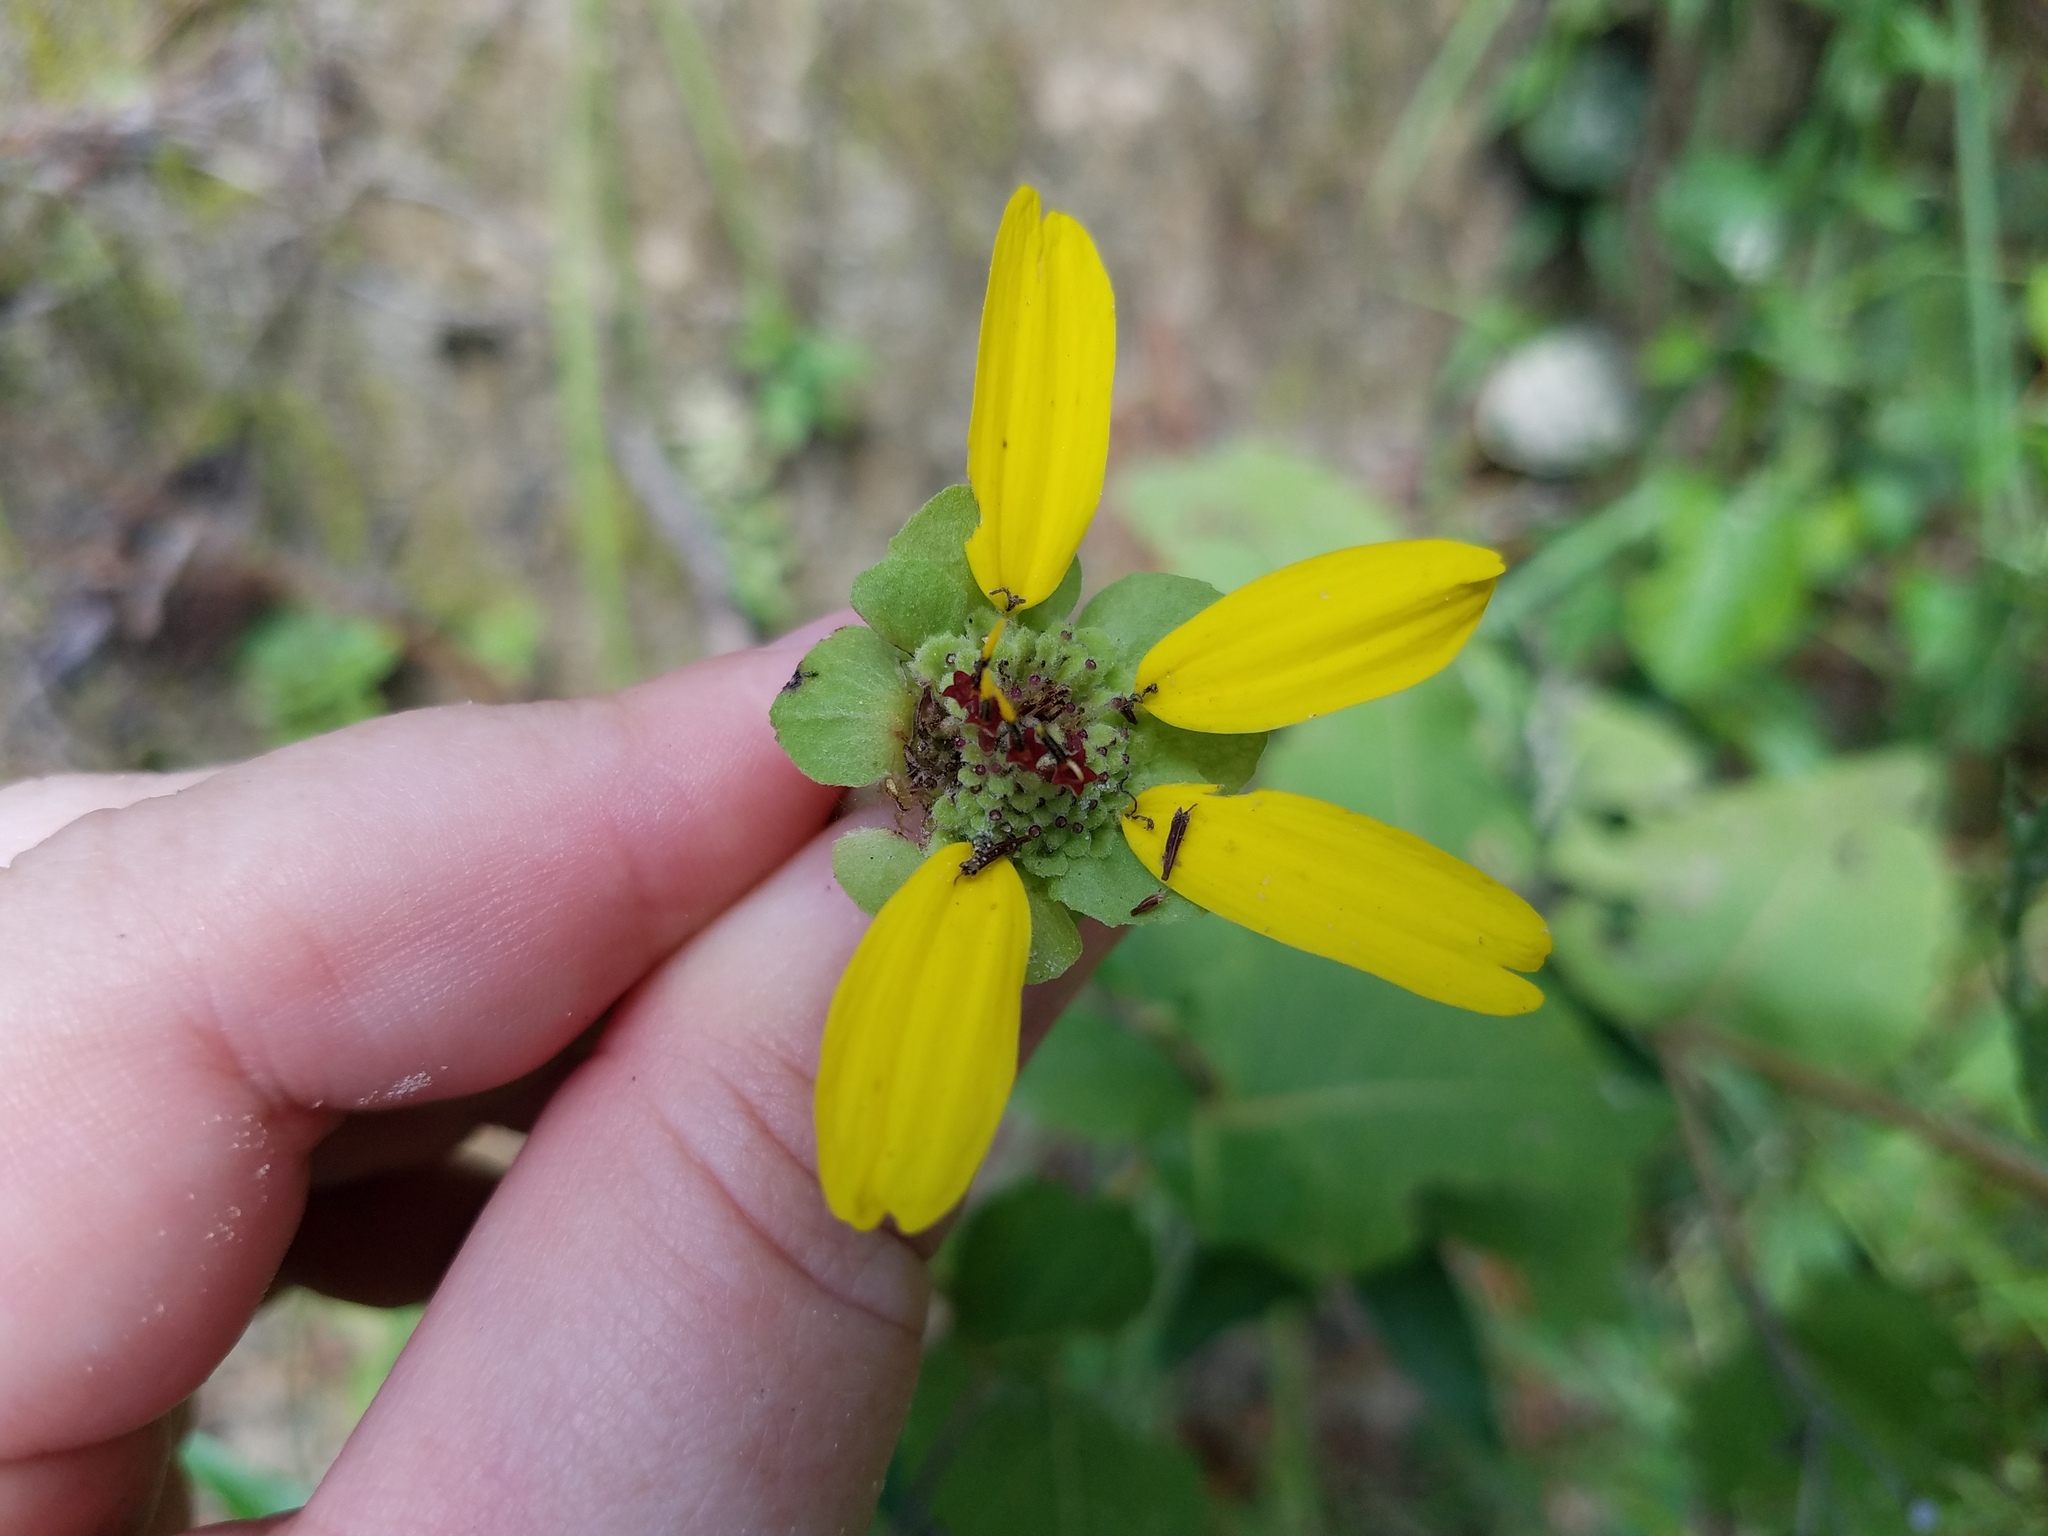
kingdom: Plantae
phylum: Tracheophyta
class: Magnoliopsida
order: Asterales
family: Asteraceae
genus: Berlandiera
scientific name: Berlandiera pumila
